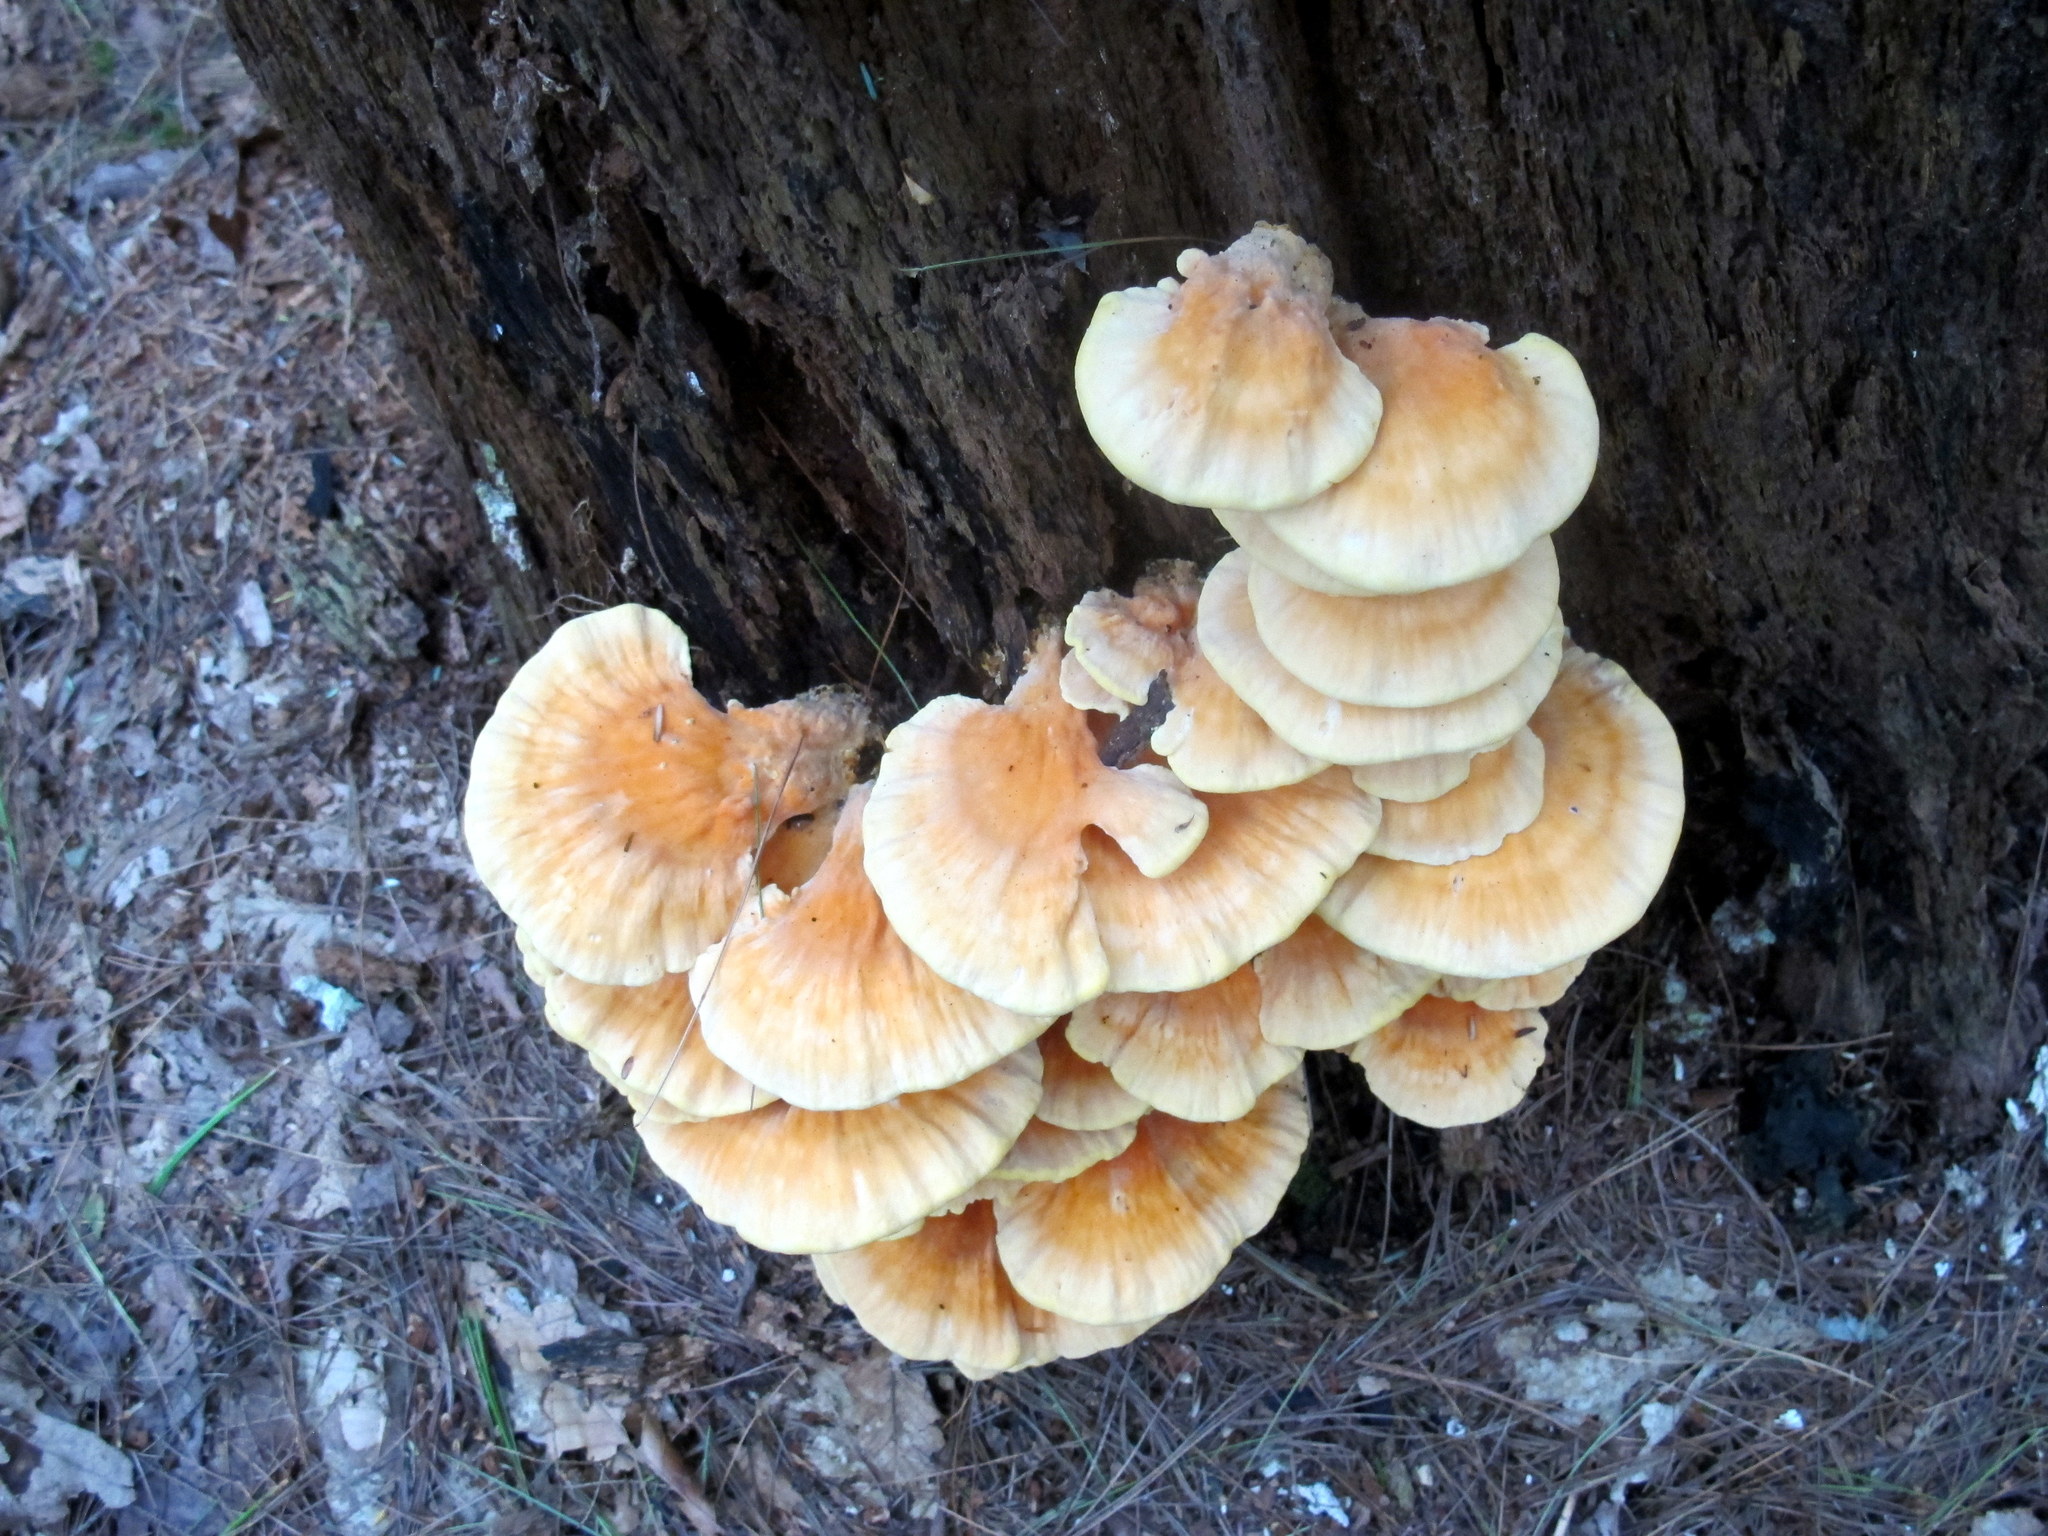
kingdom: Fungi
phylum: Basidiomycota
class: Agaricomycetes
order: Polyporales
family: Laetiporaceae
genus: Laetiporus
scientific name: Laetiporus sulphureus
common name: Chicken of the woods
